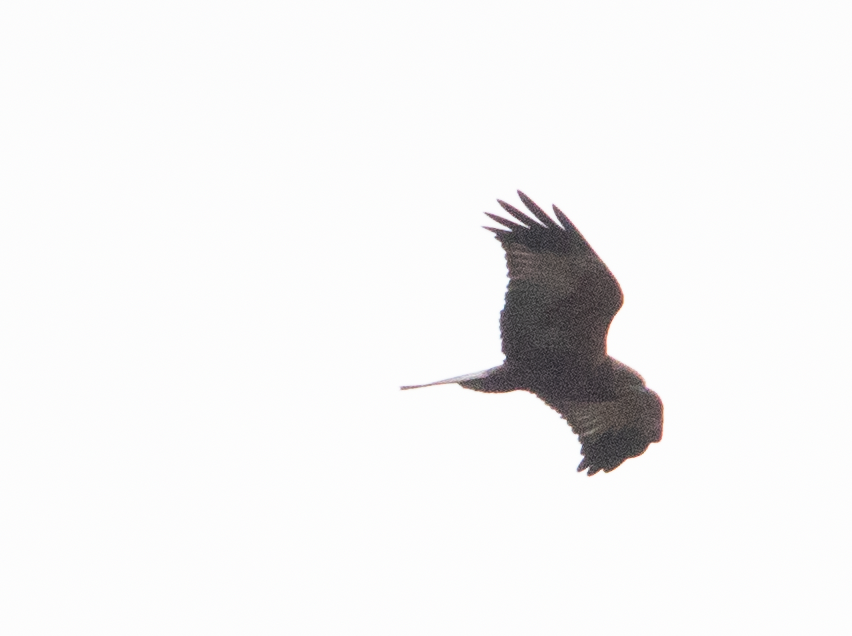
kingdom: Animalia
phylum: Chordata
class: Aves
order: Accipitriformes
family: Accipitridae
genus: Circus
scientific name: Circus aeruginosus
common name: Western marsh harrier
